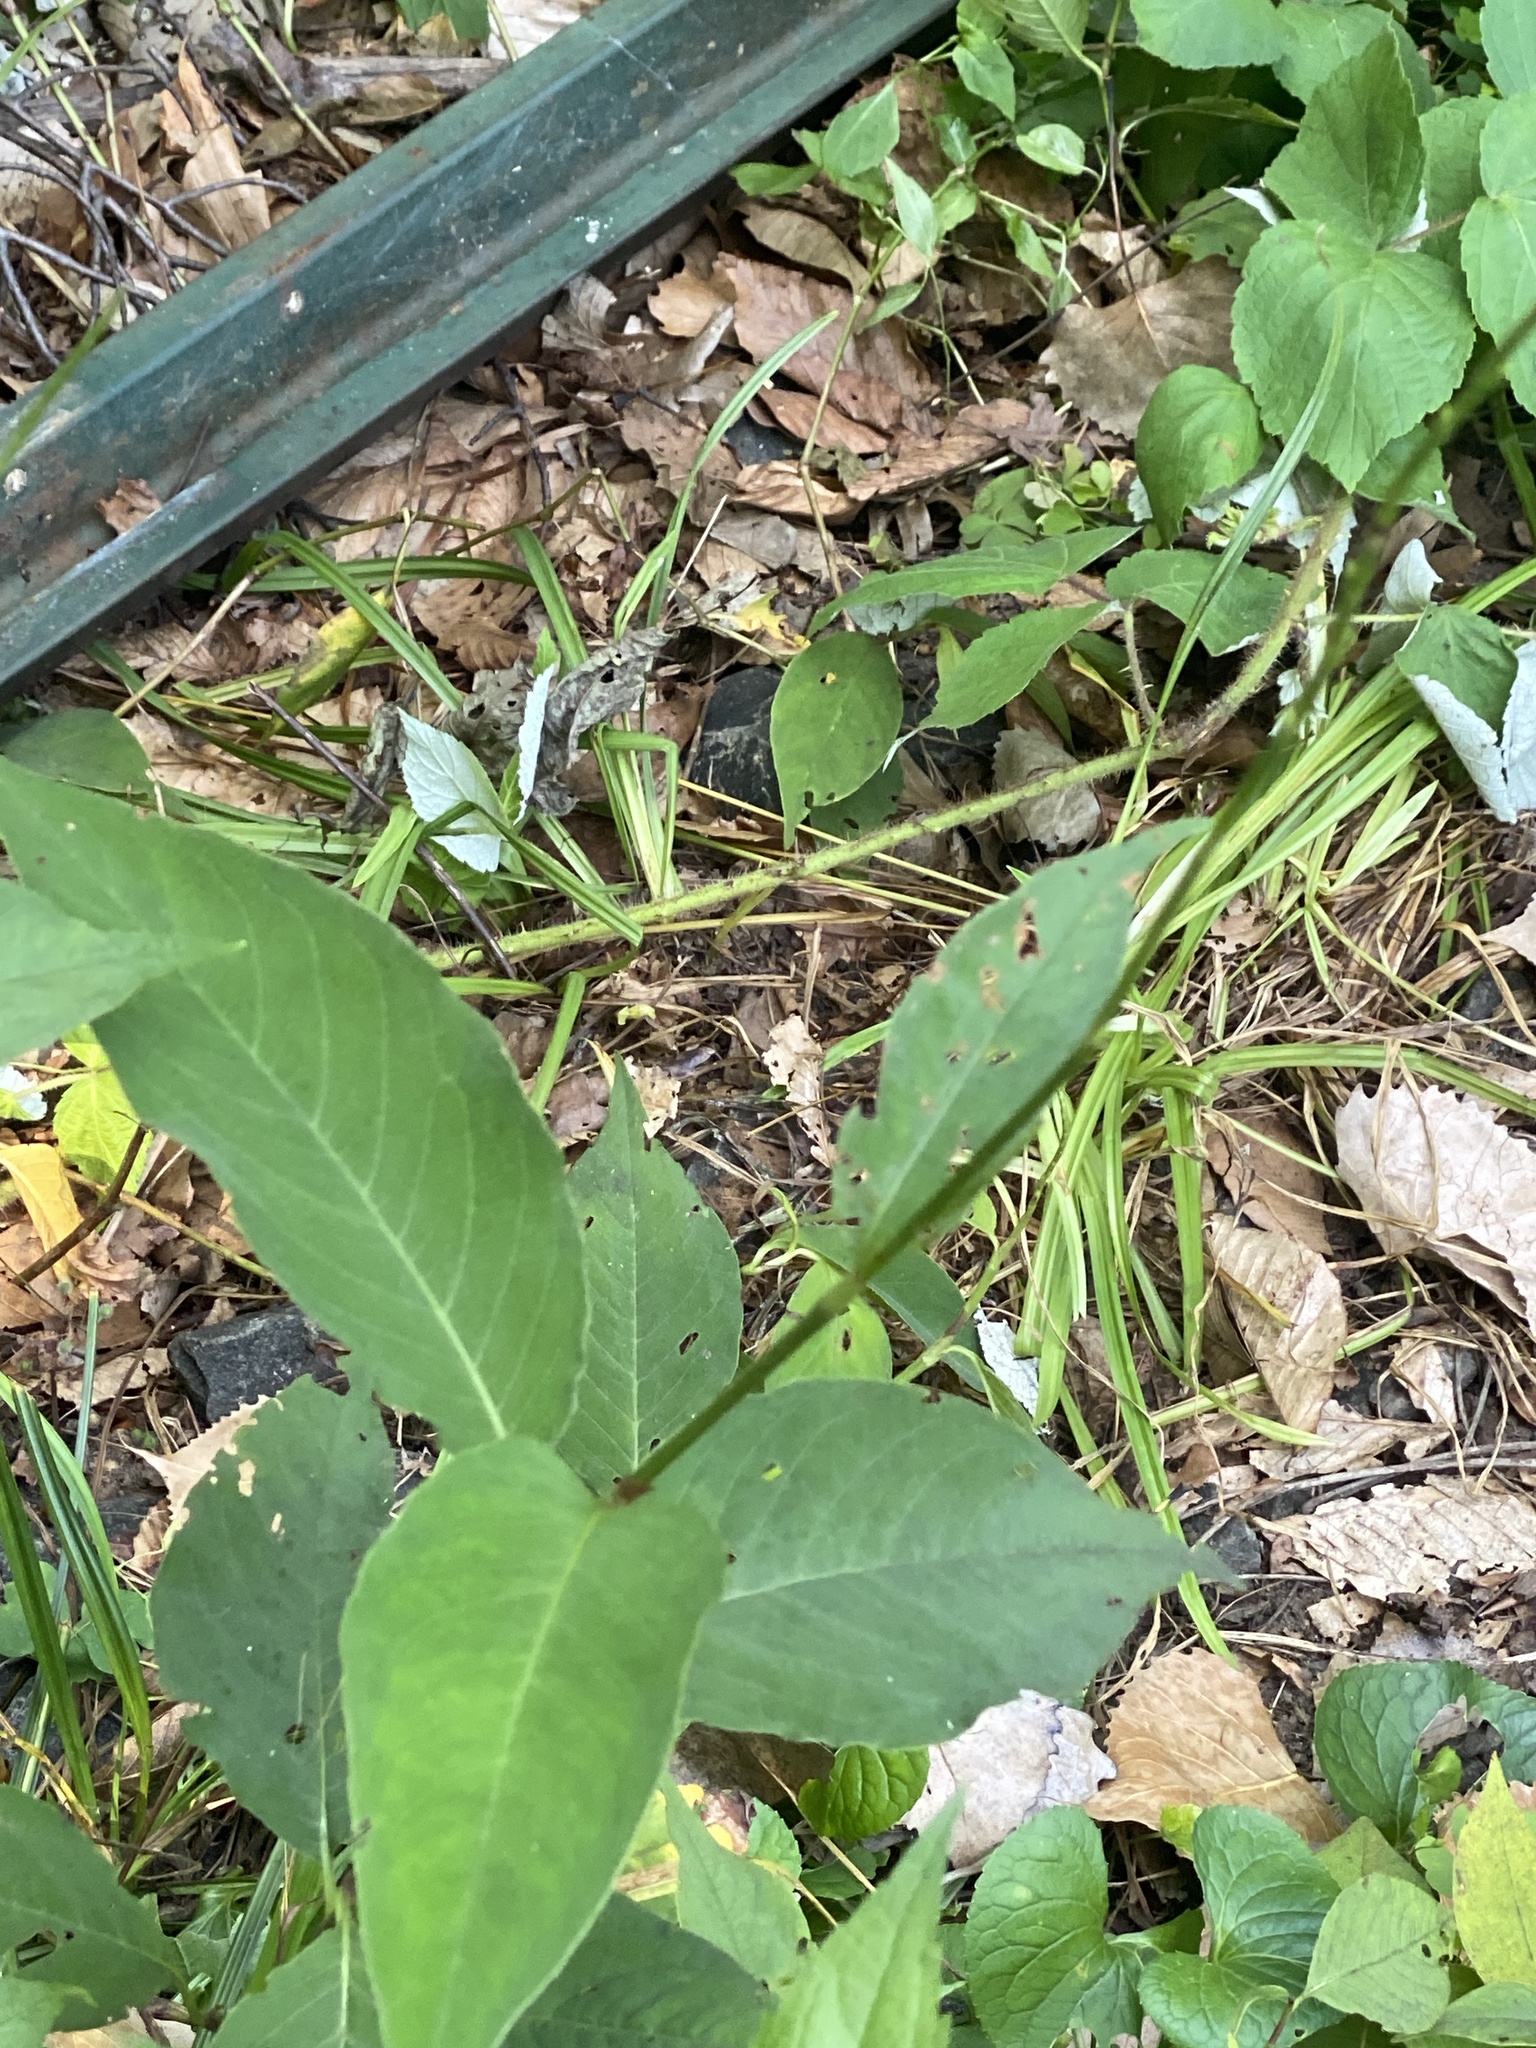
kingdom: Plantae
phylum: Tracheophyta
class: Magnoliopsida
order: Caryophyllales
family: Polygonaceae
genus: Persicaria
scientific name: Persicaria virginiana
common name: Jumpseed
